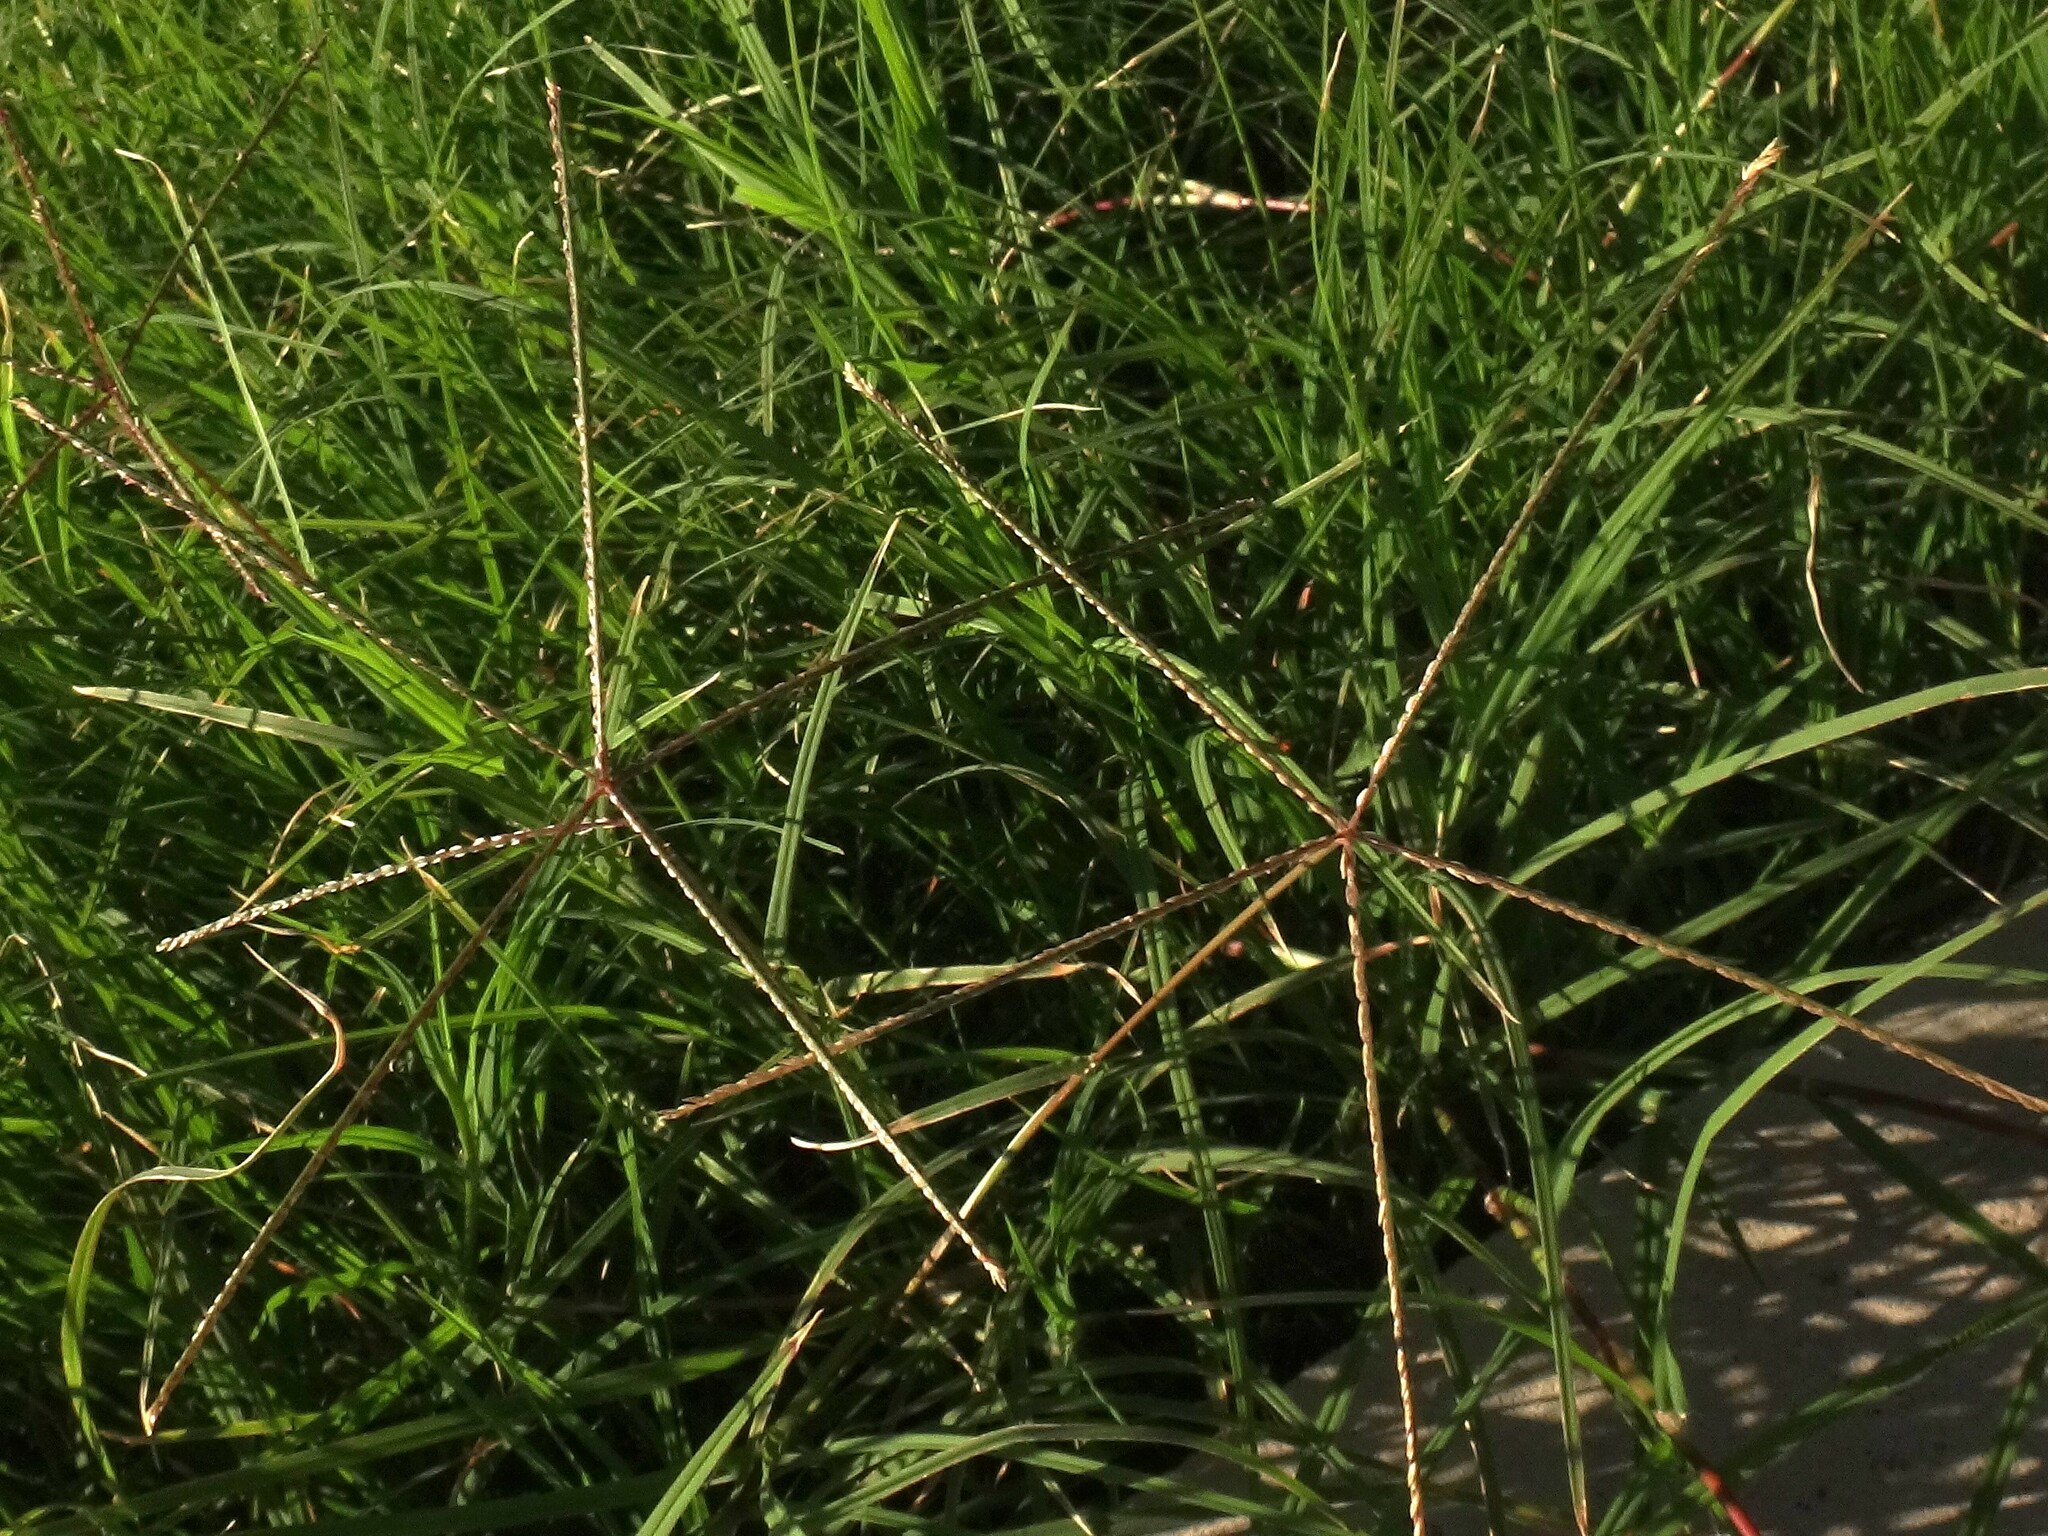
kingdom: Plantae
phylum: Tracheophyta
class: Liliopsida
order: Poales
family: Poaceae
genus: Cynodon
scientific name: Cynodon dactylon
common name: Bermuda grass
